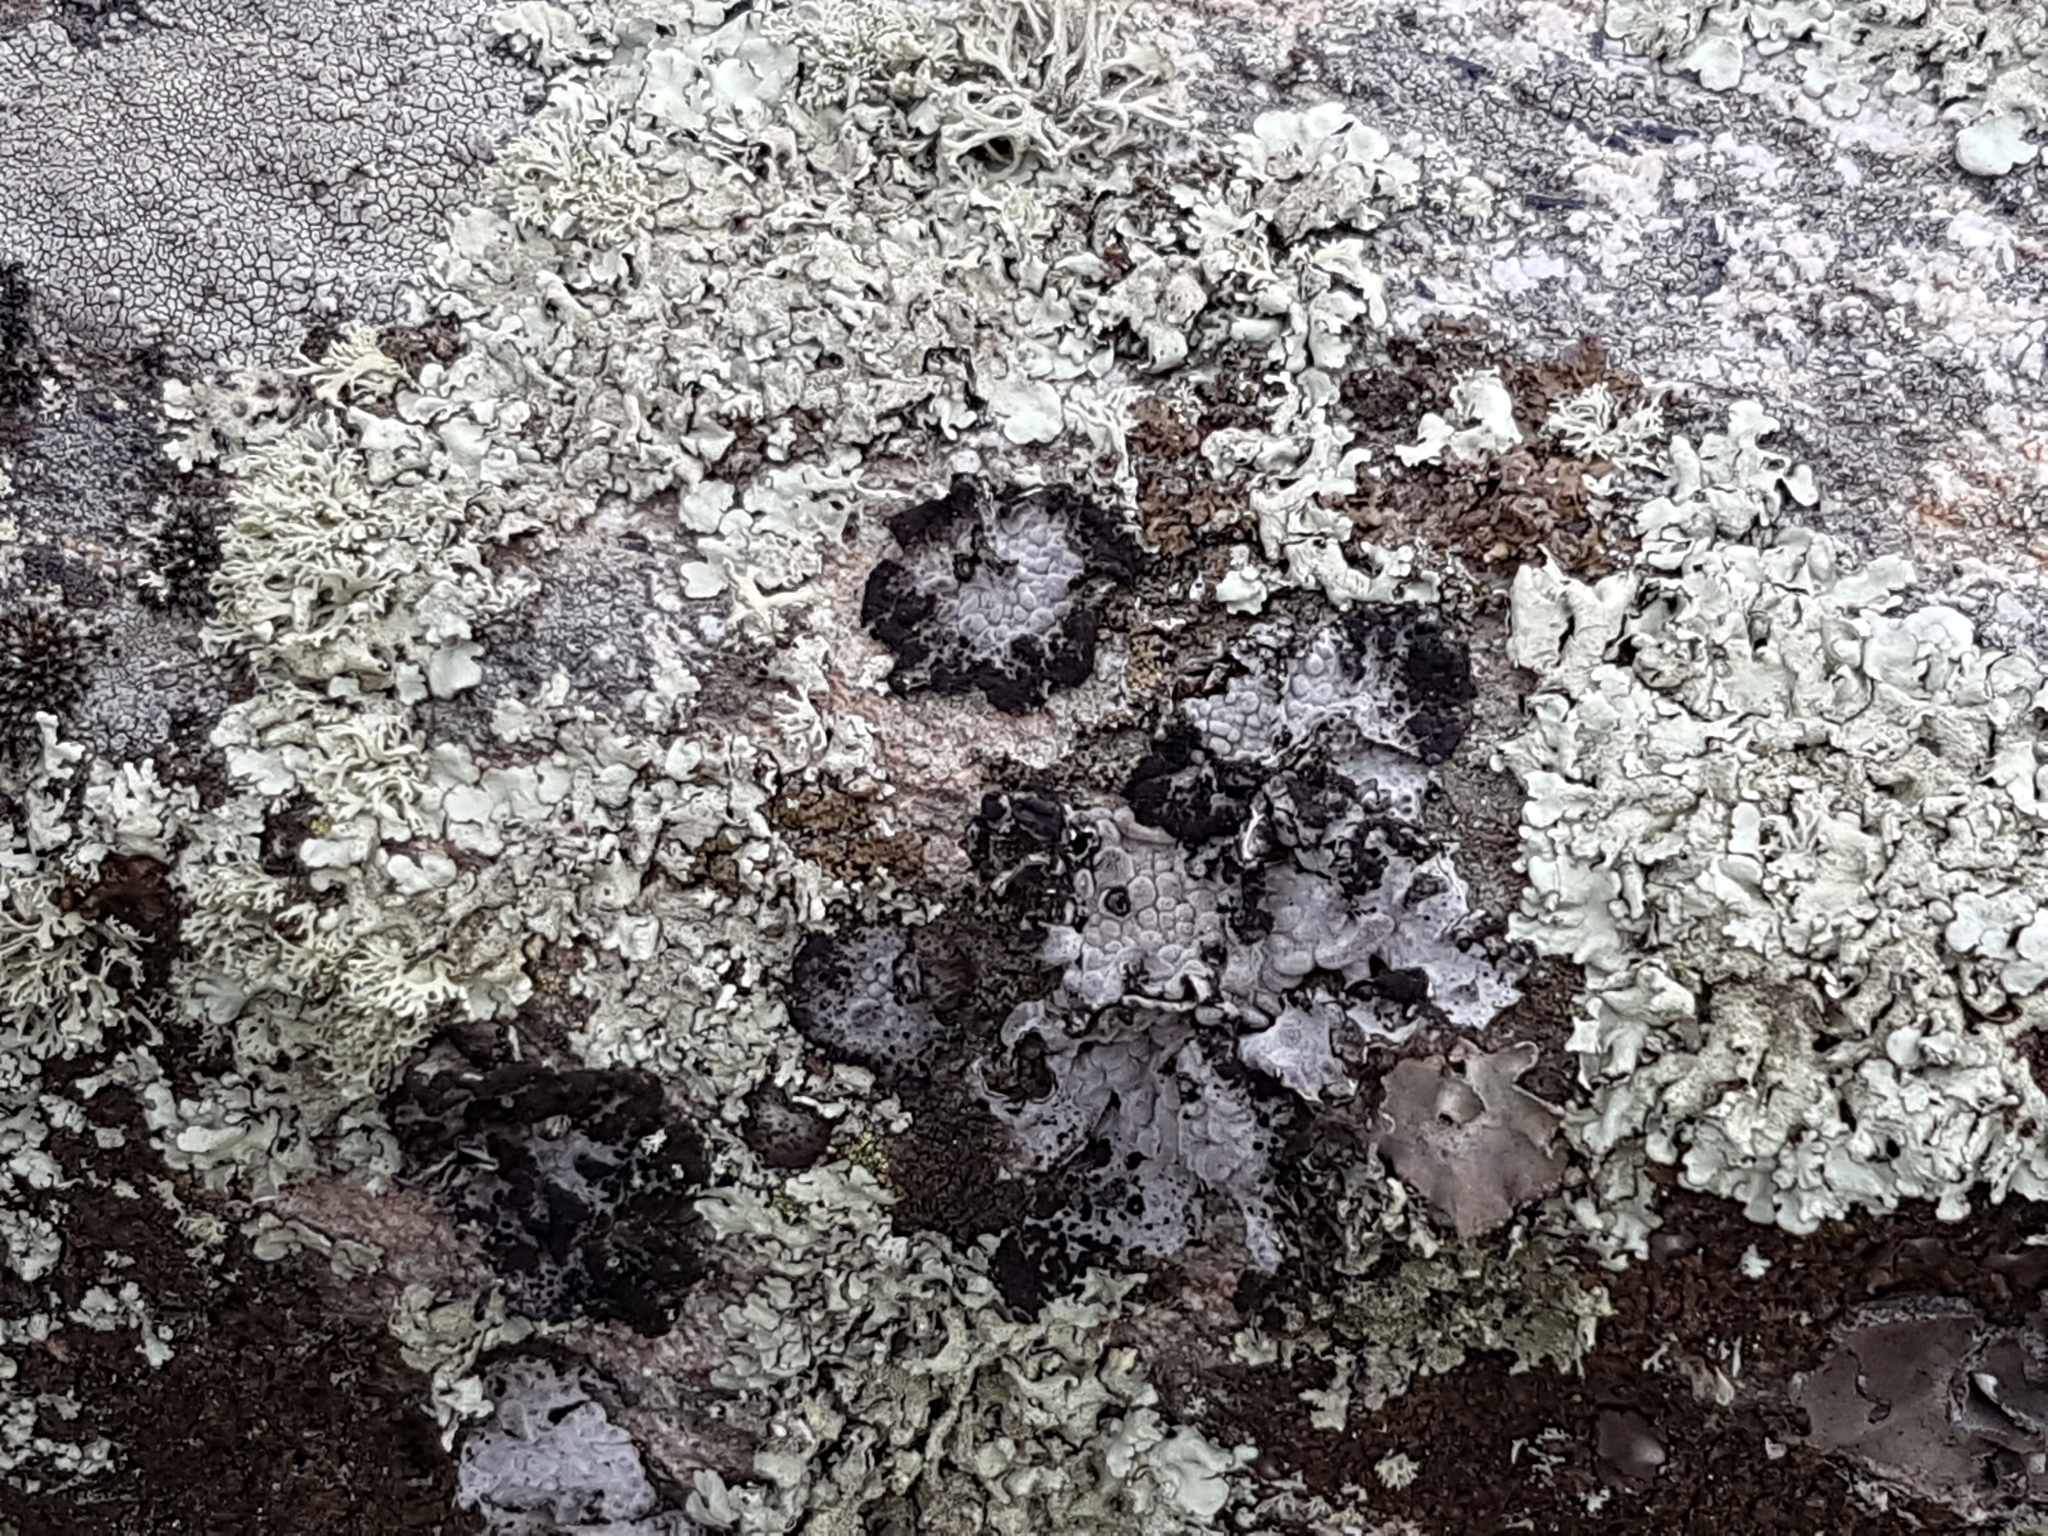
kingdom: Fungi
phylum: Ascomycota
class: Lecanoromycetes
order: Umbilicariales
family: Umbilicariaceae
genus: Lasallia
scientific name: Lasallia pustulata
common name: Blistered toadskin lichen
